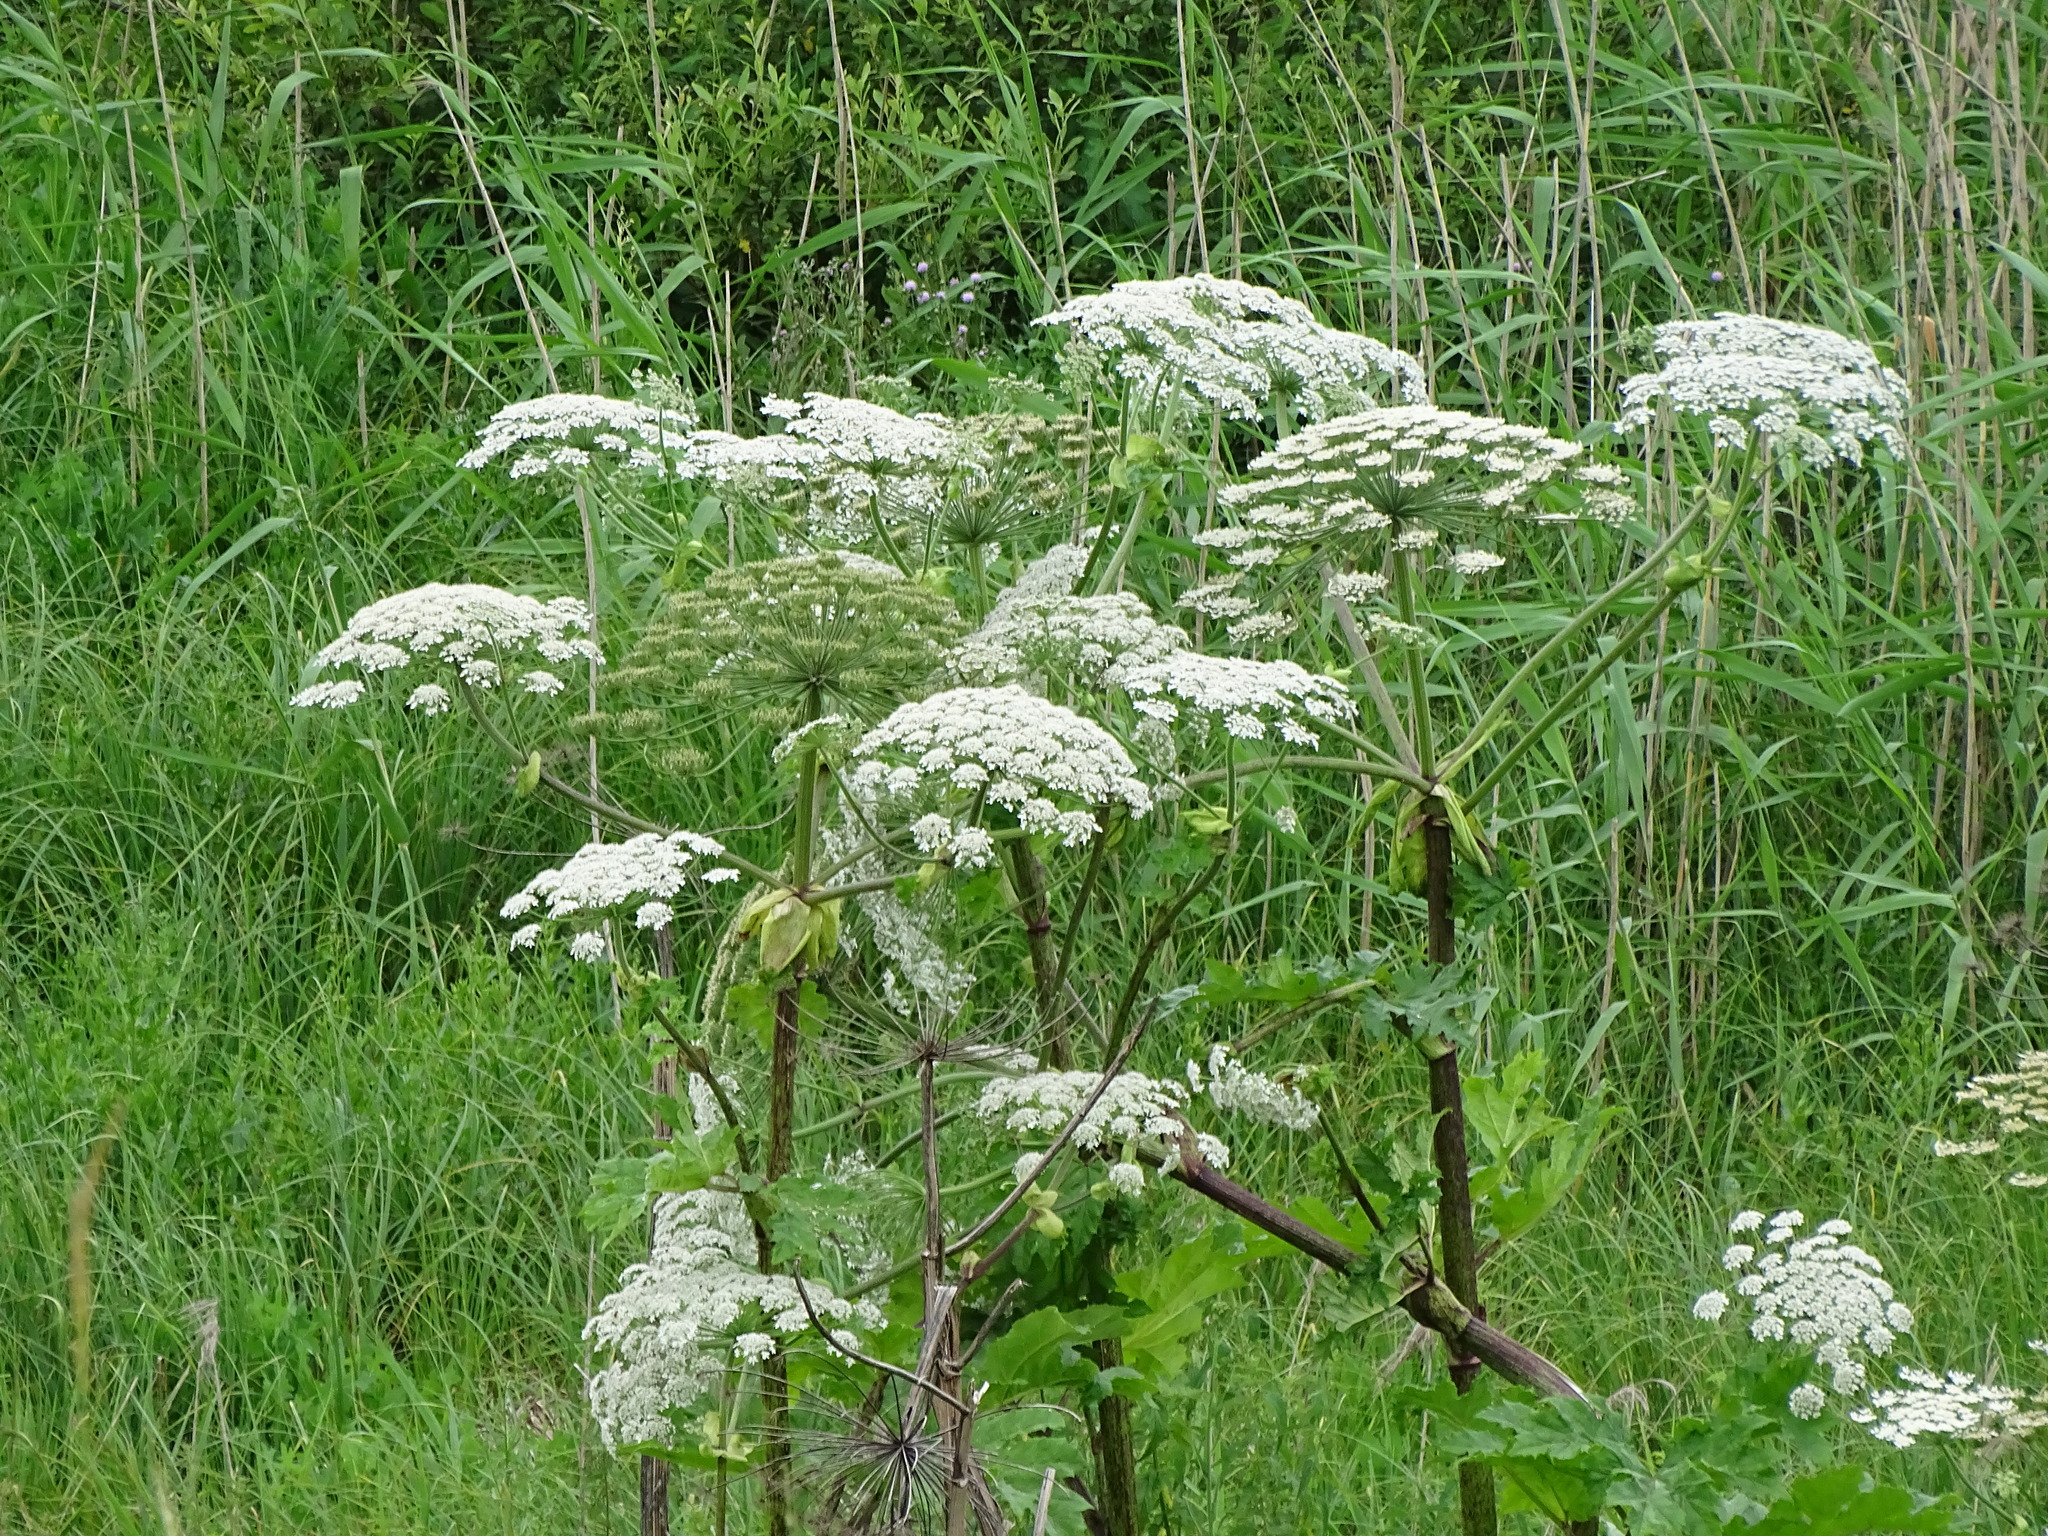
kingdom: Plantae
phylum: Tracheophyta
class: Magnoliopsida
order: Apiales
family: Apiaceae
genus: Heracleum
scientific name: Heracleum sosnowskyi
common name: Sosnowsky's hogweed
